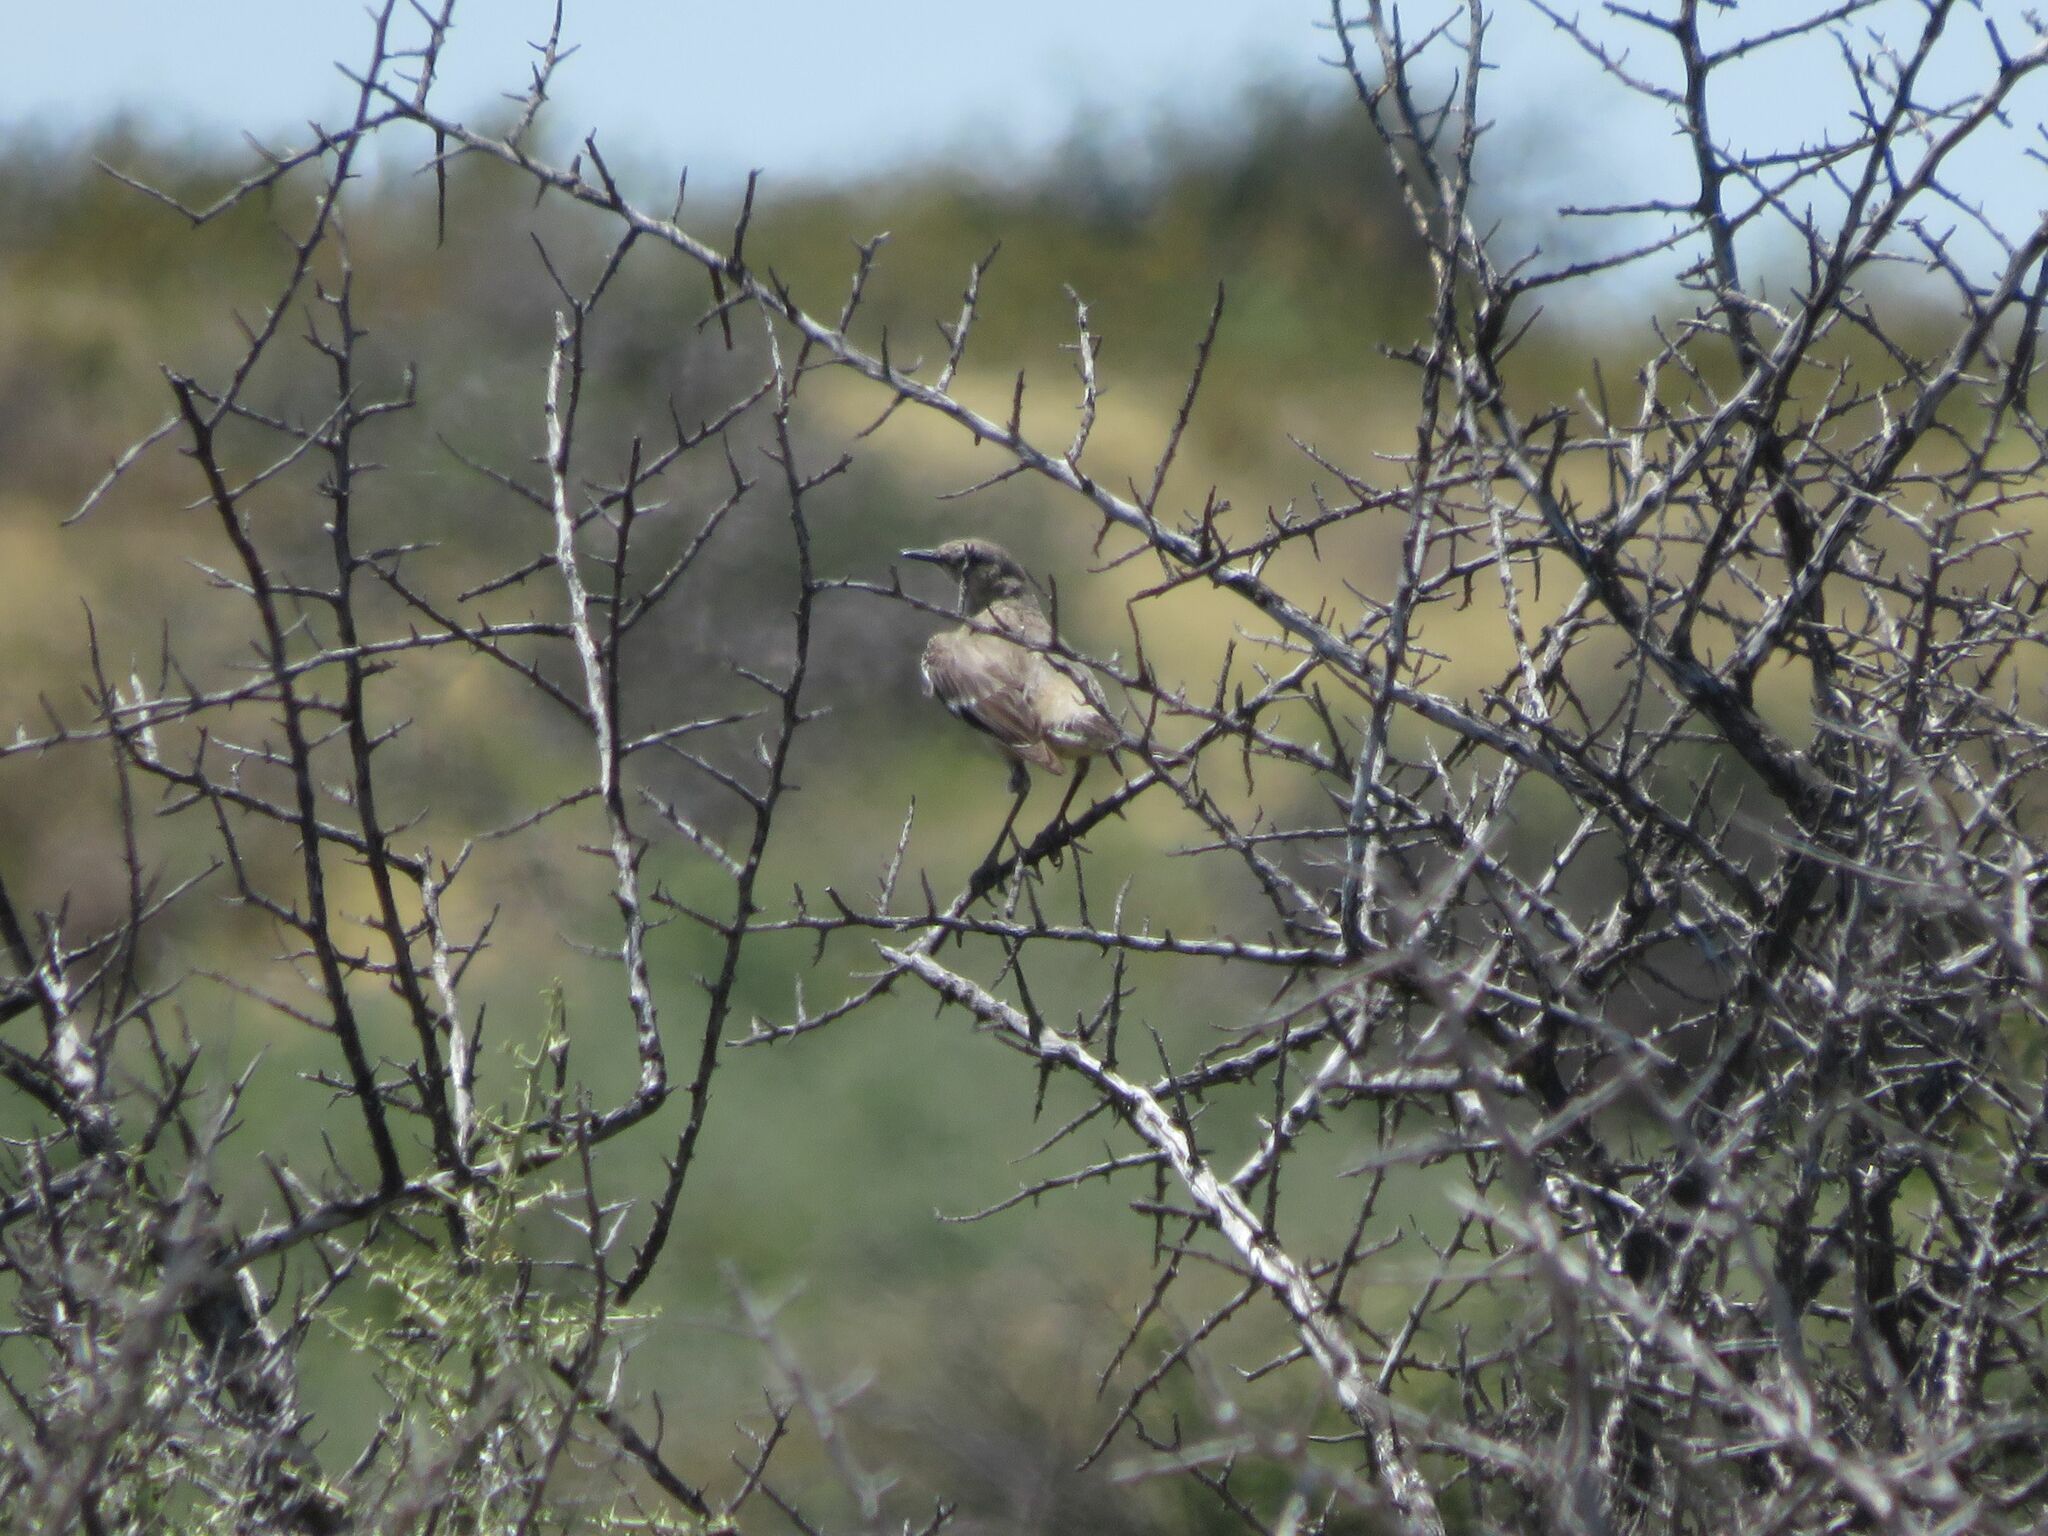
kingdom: Animalia
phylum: Chordata
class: Aves
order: Passeriformes
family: Mimidae
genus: Mimus
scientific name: Mimus patagonicus
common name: Patagonian mockingbird
